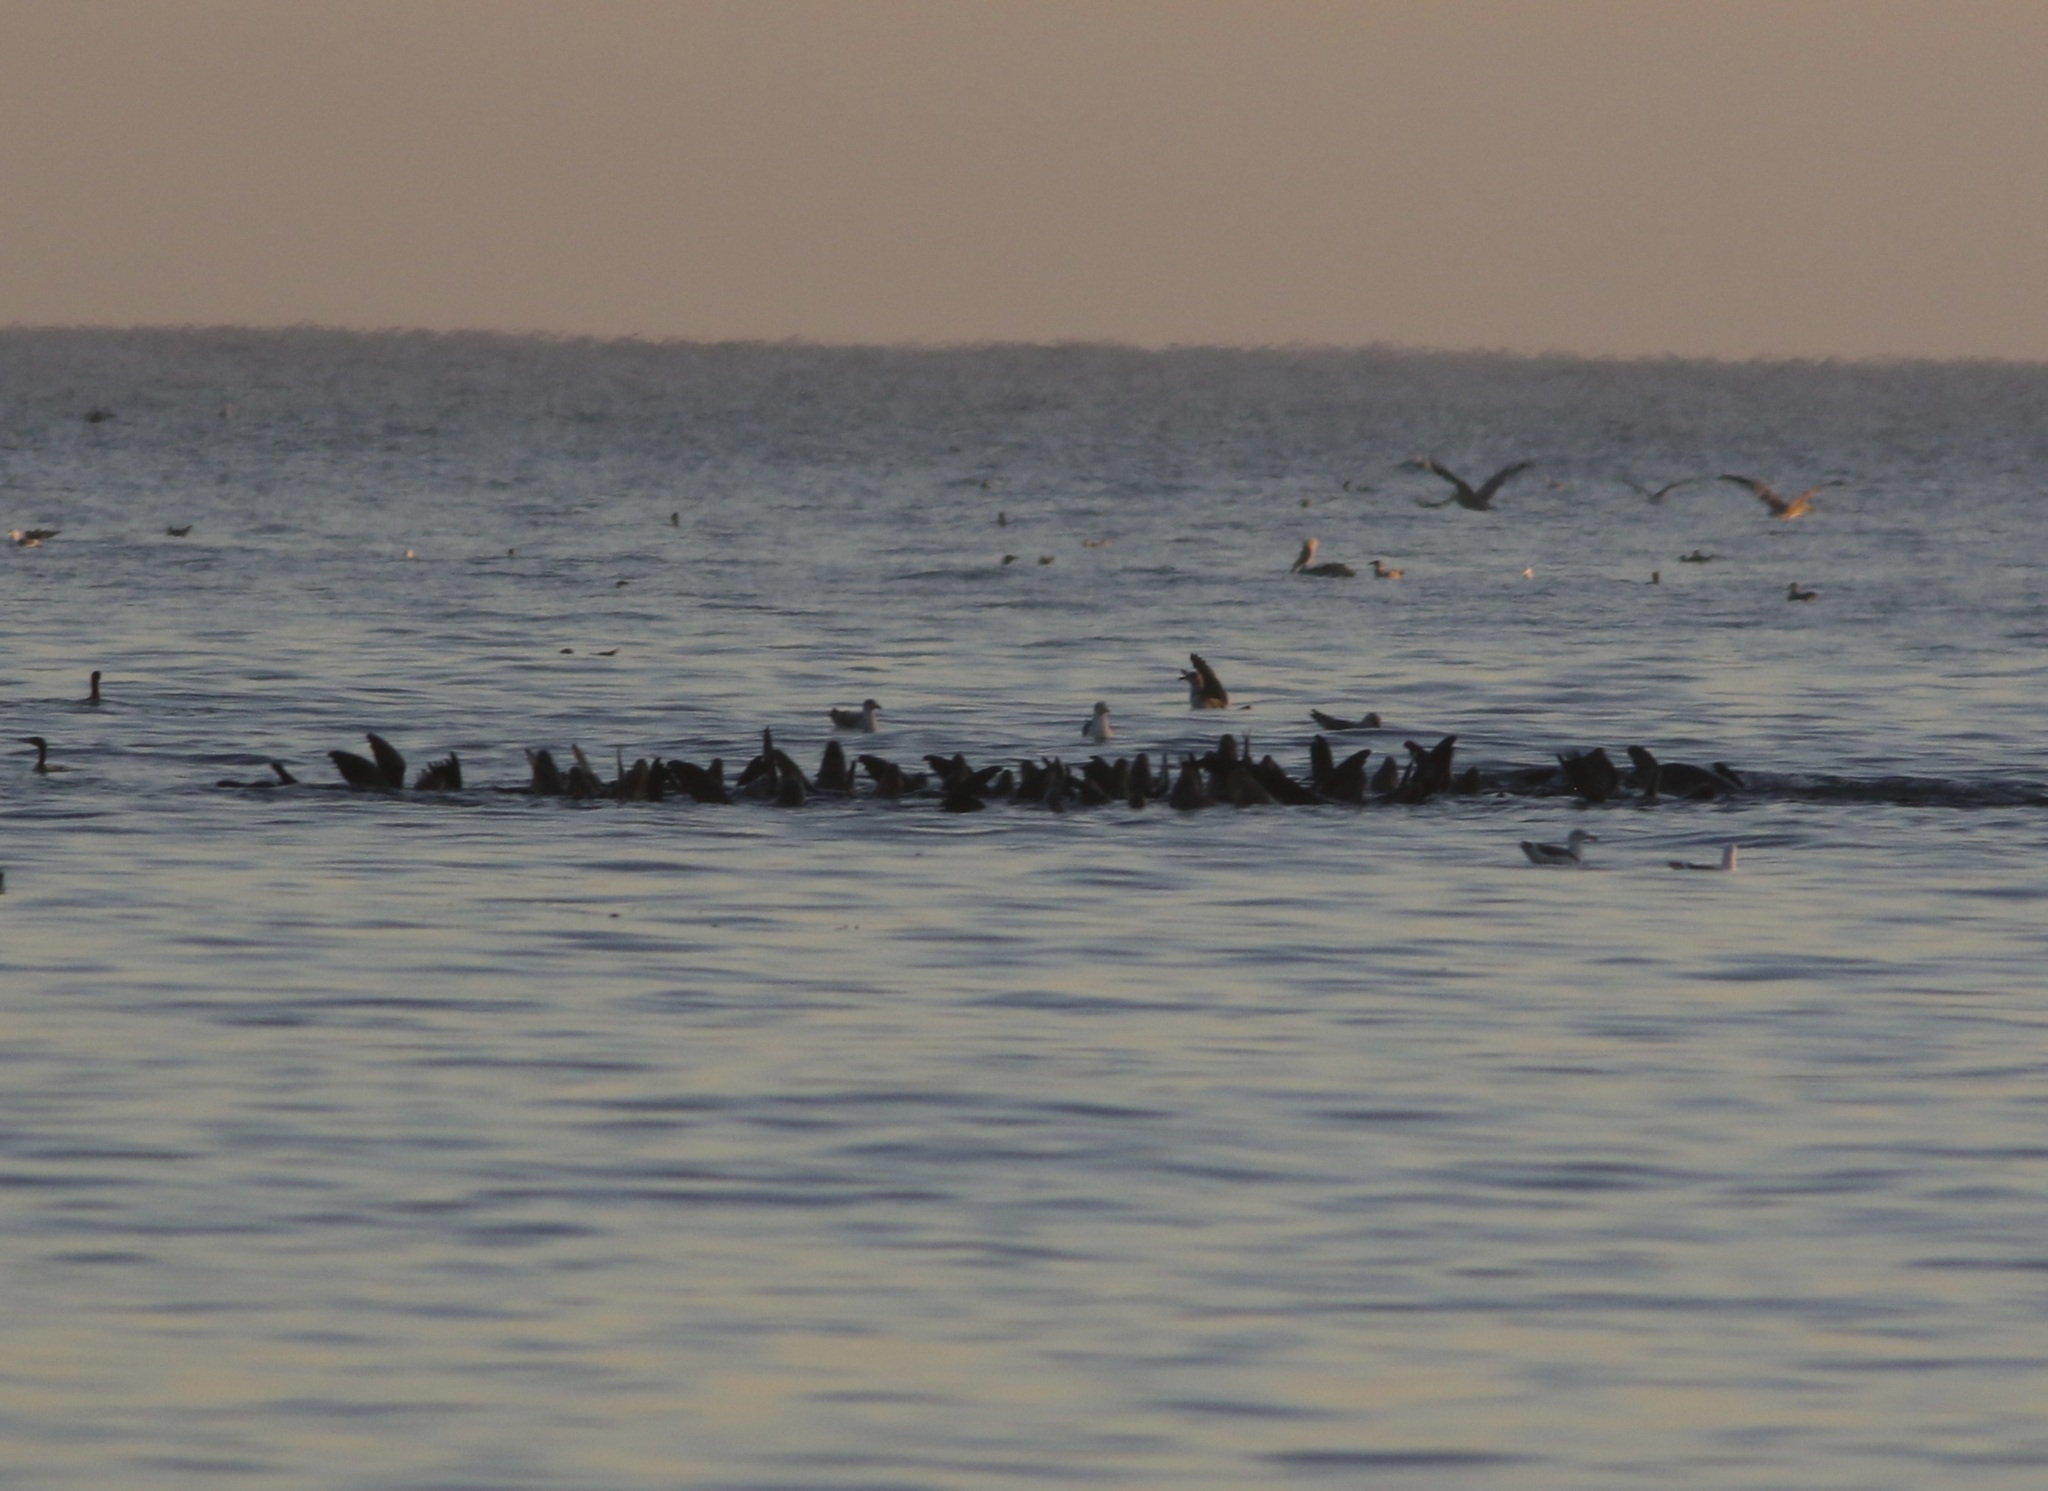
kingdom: Animalia
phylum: Chordata
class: Mammalia
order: Carnivora
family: Otariidae
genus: Zalophus
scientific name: Zalophus californianus
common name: California sea lion
